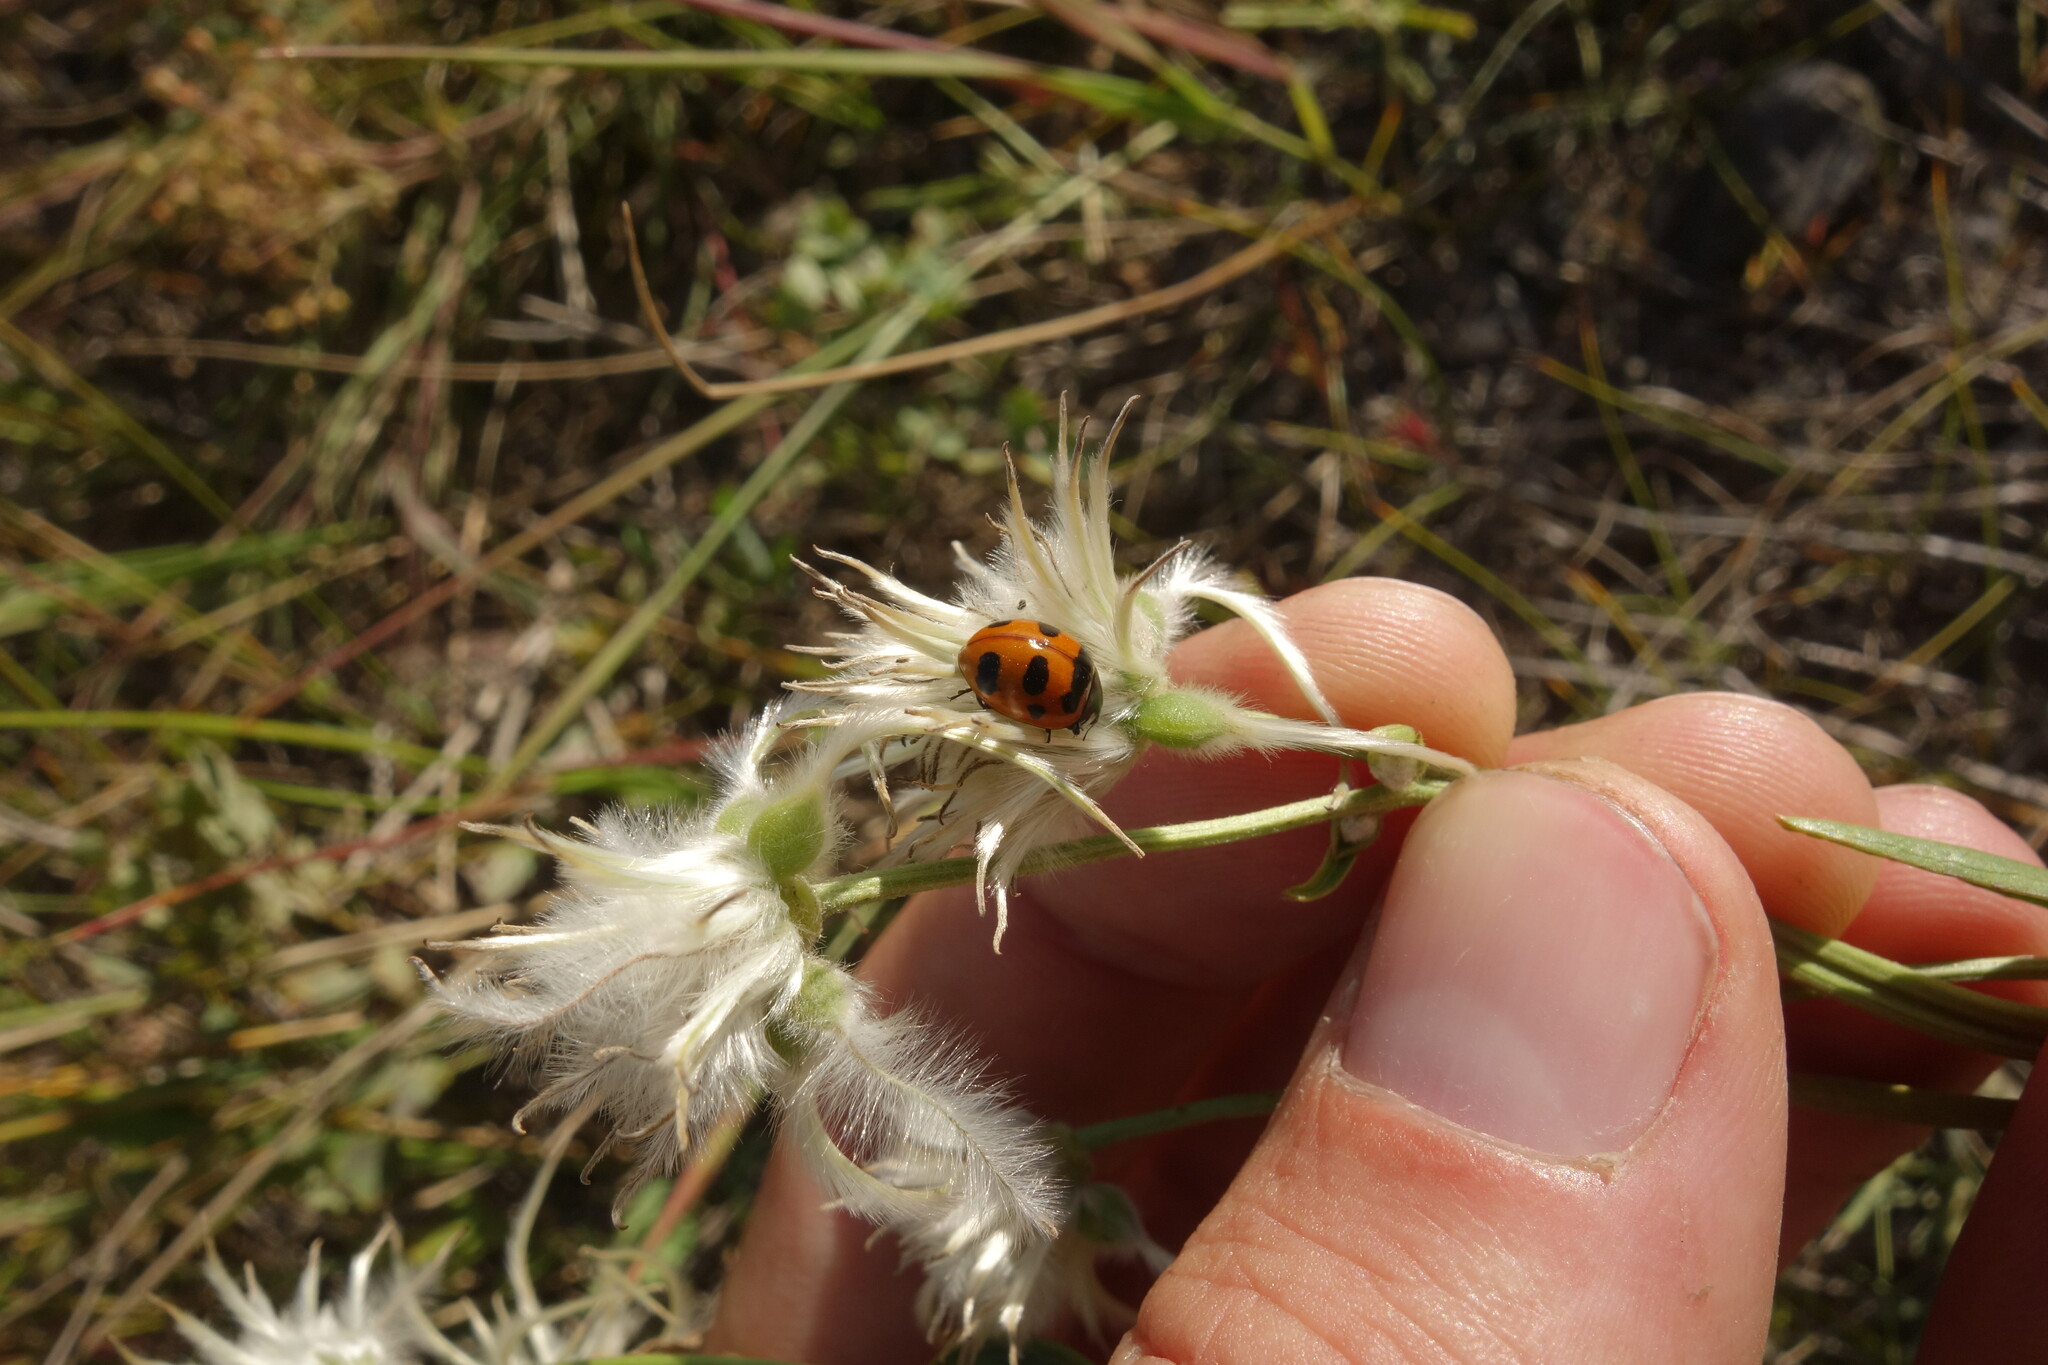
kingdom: Animalia
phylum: Arthropoda
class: Insecta
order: Coleoptera
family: Coccinellidae
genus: Coccinella
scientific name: Coccinella transversoguttata
